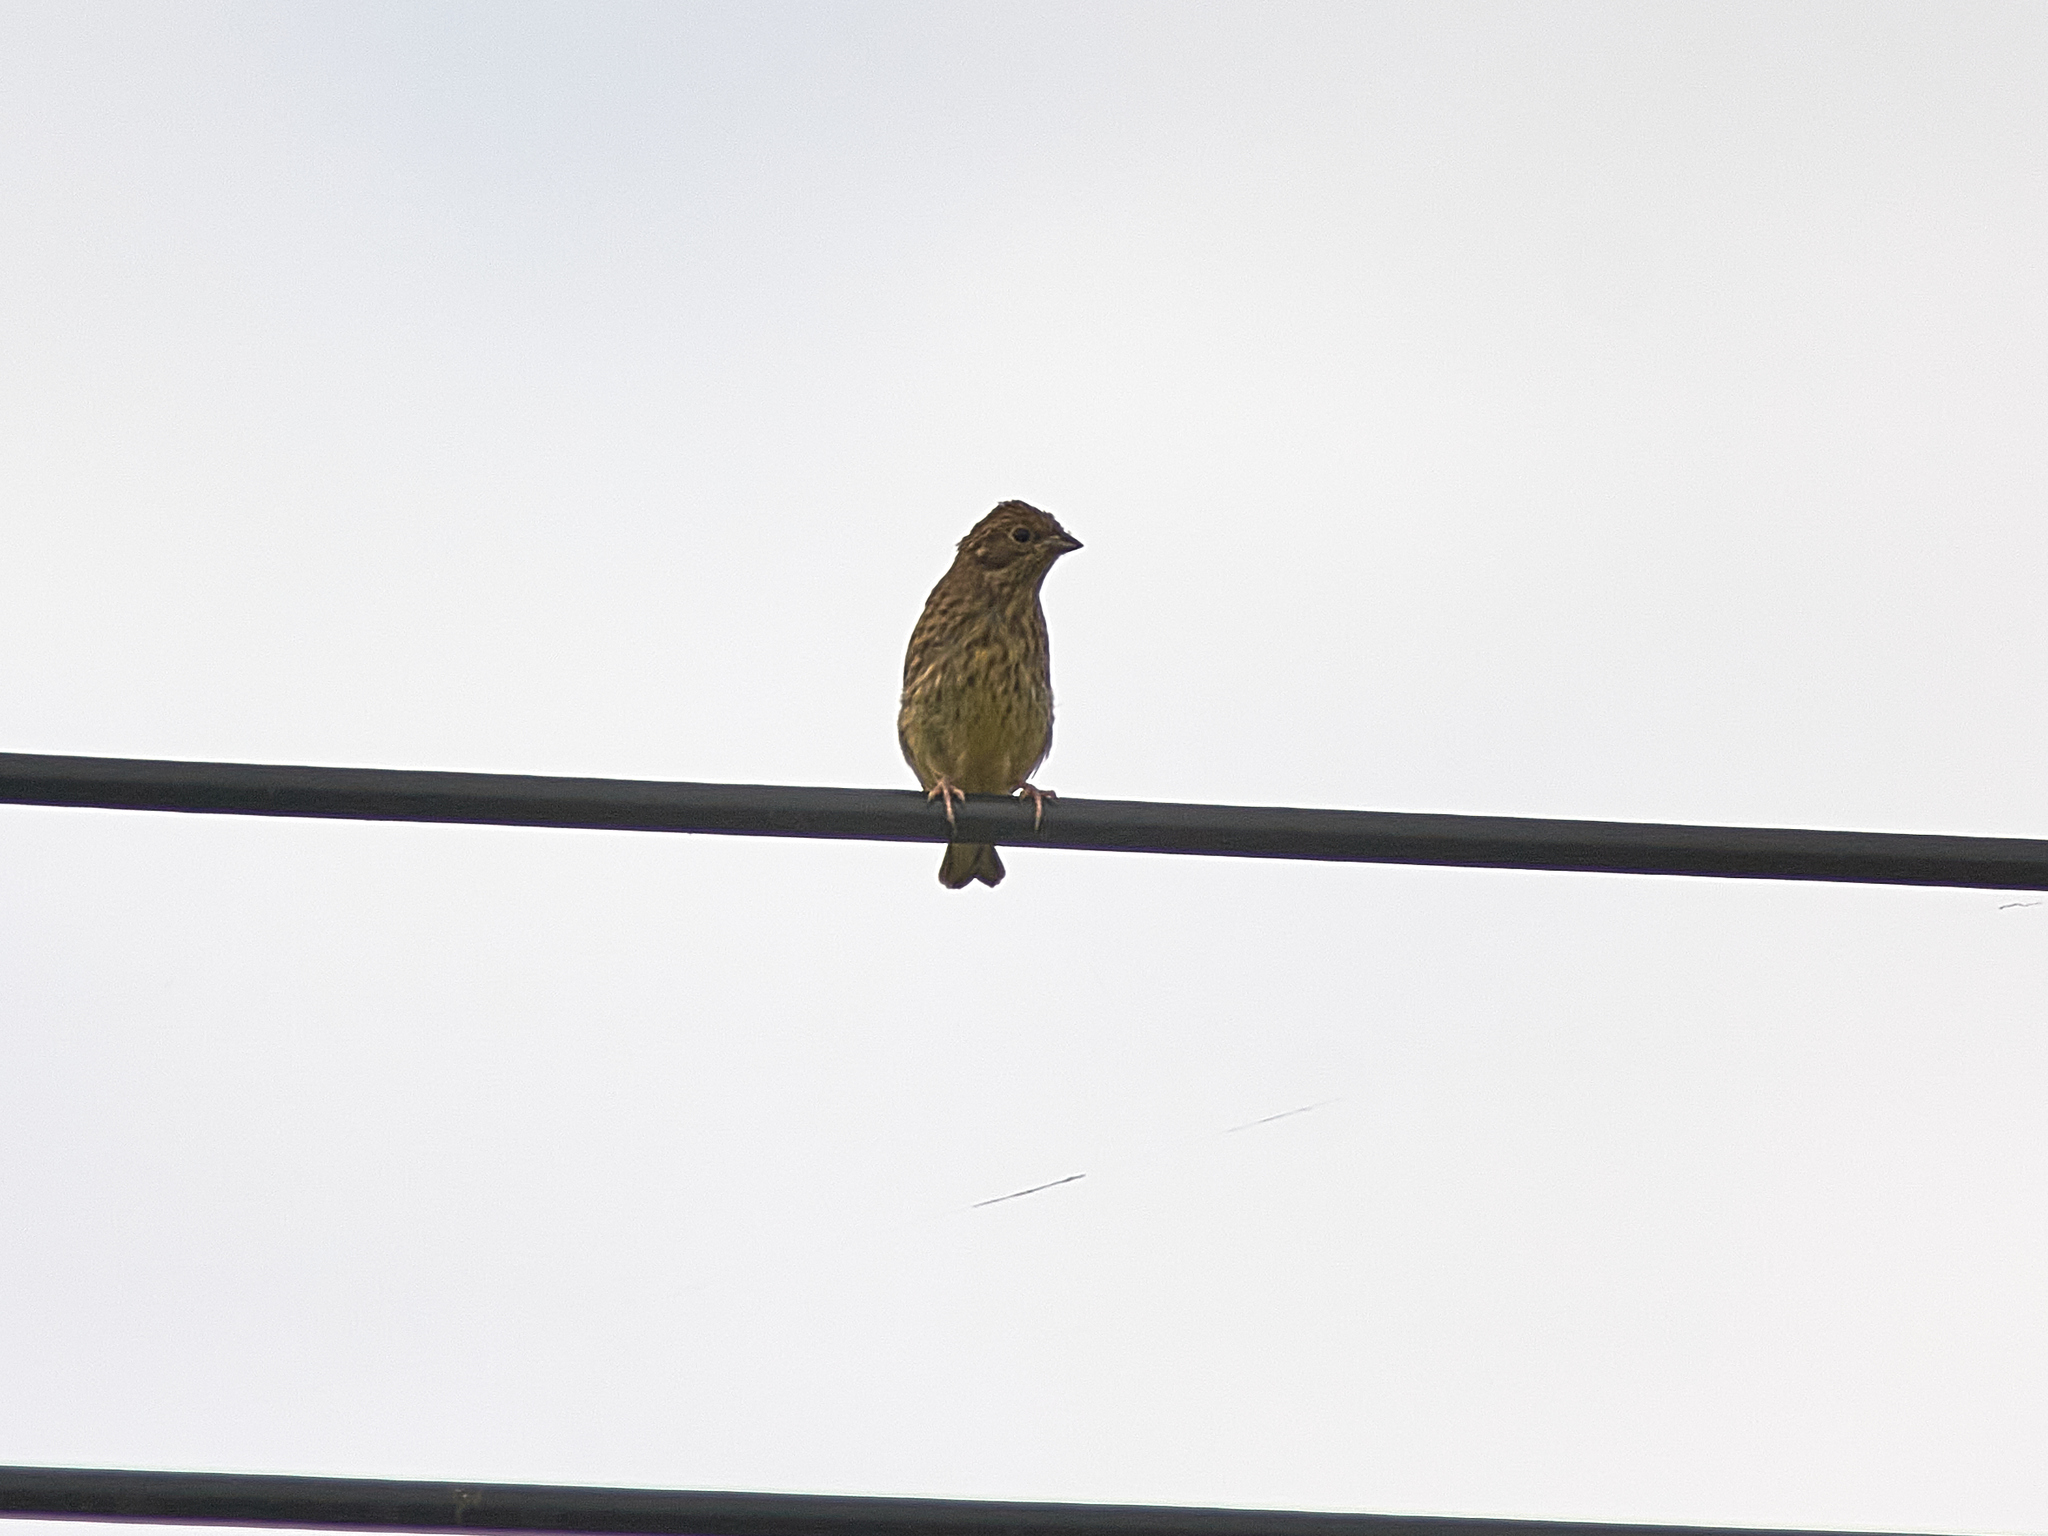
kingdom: Animalia
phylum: Chordata
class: Aves
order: Passeriformes
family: Emberizidae
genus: Emberiza
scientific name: Emberiza citrinella
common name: Yellowhammer
